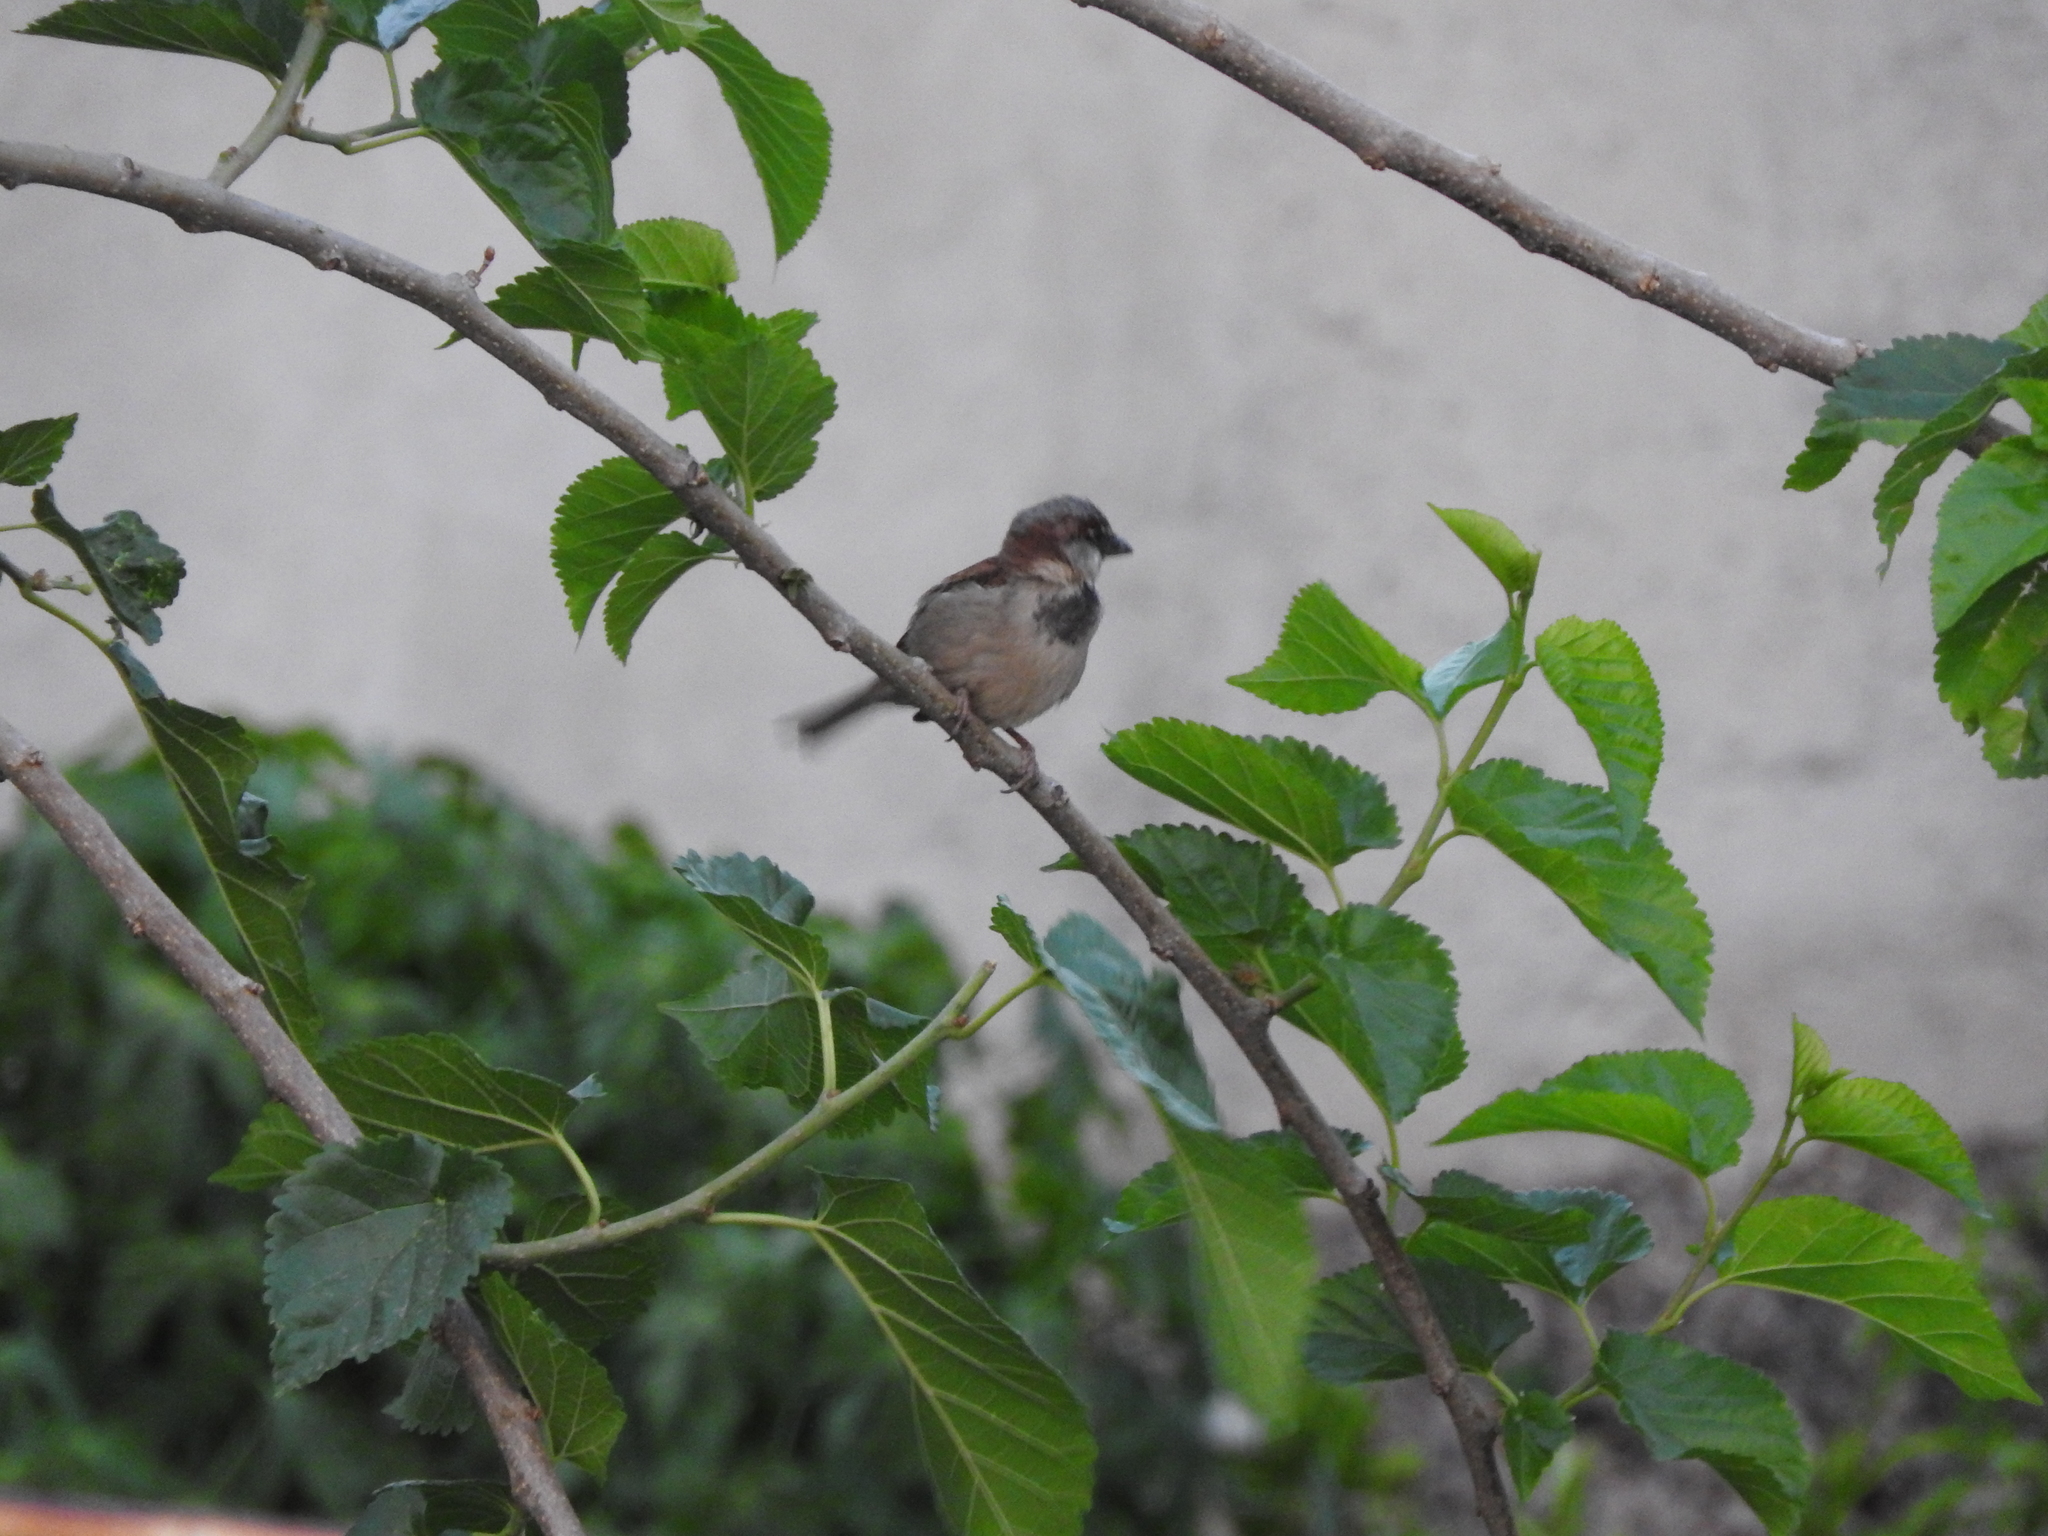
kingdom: Animalia
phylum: Chordata
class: Aves
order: Passeriformes
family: Passeridae
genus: Passer
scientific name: Passer domesticus
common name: House sparrow
